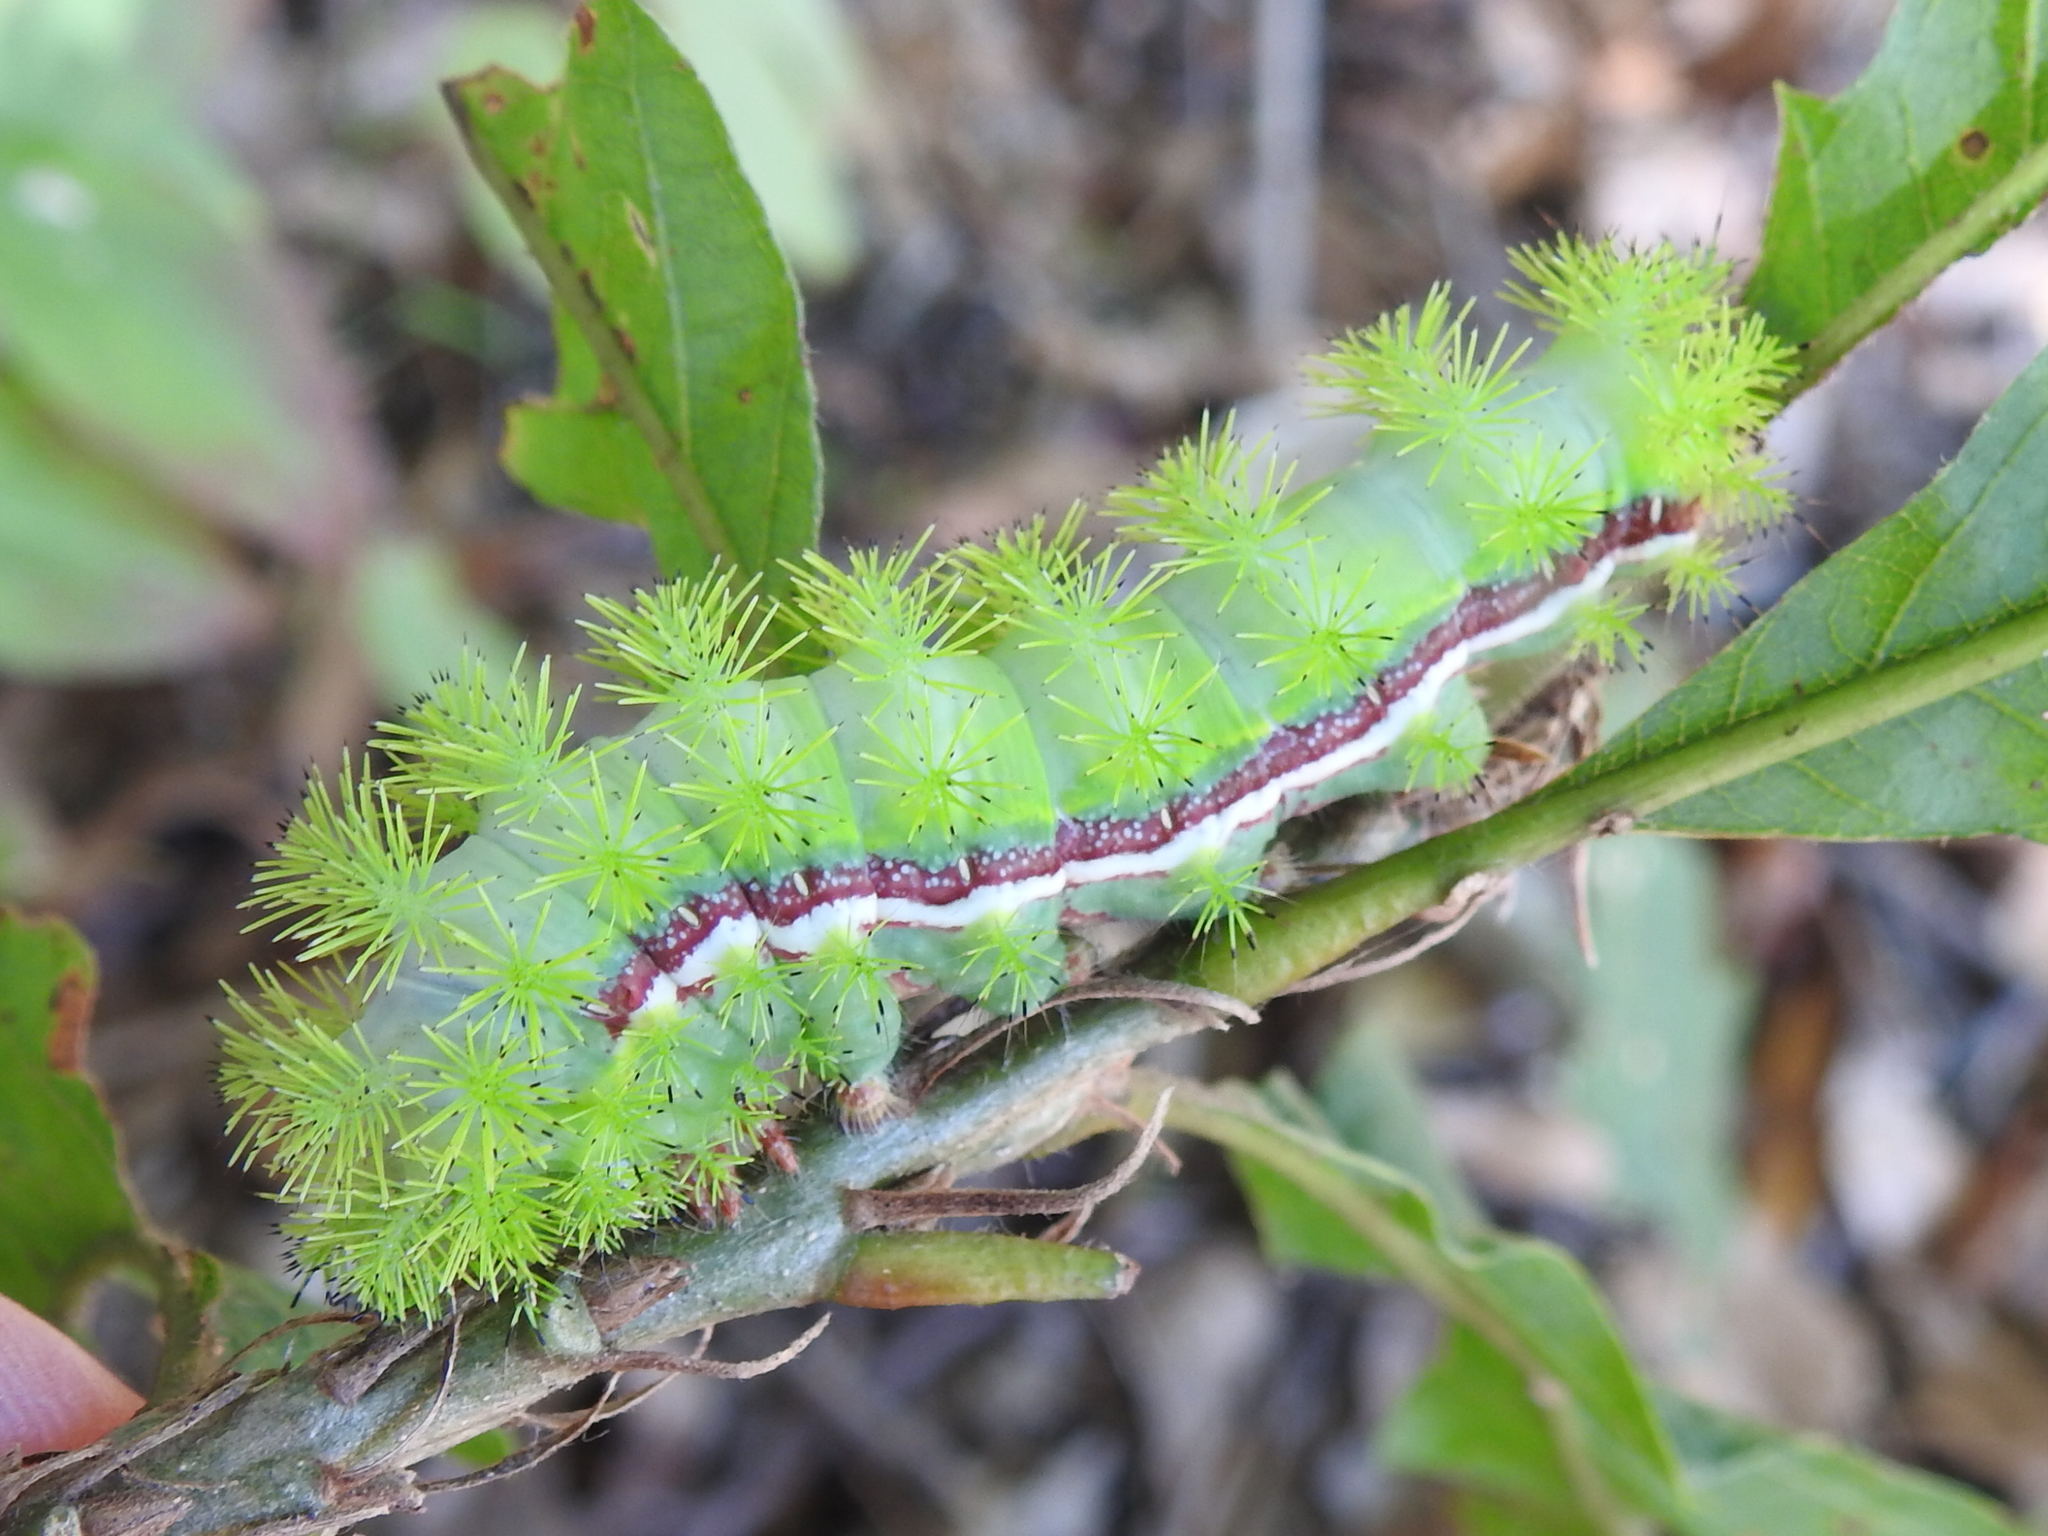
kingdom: Animalia
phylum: Arthropoda
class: Insecta
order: Lepidoptera
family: Saturniidae
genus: Automeris
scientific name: Automeris io
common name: Io moth
